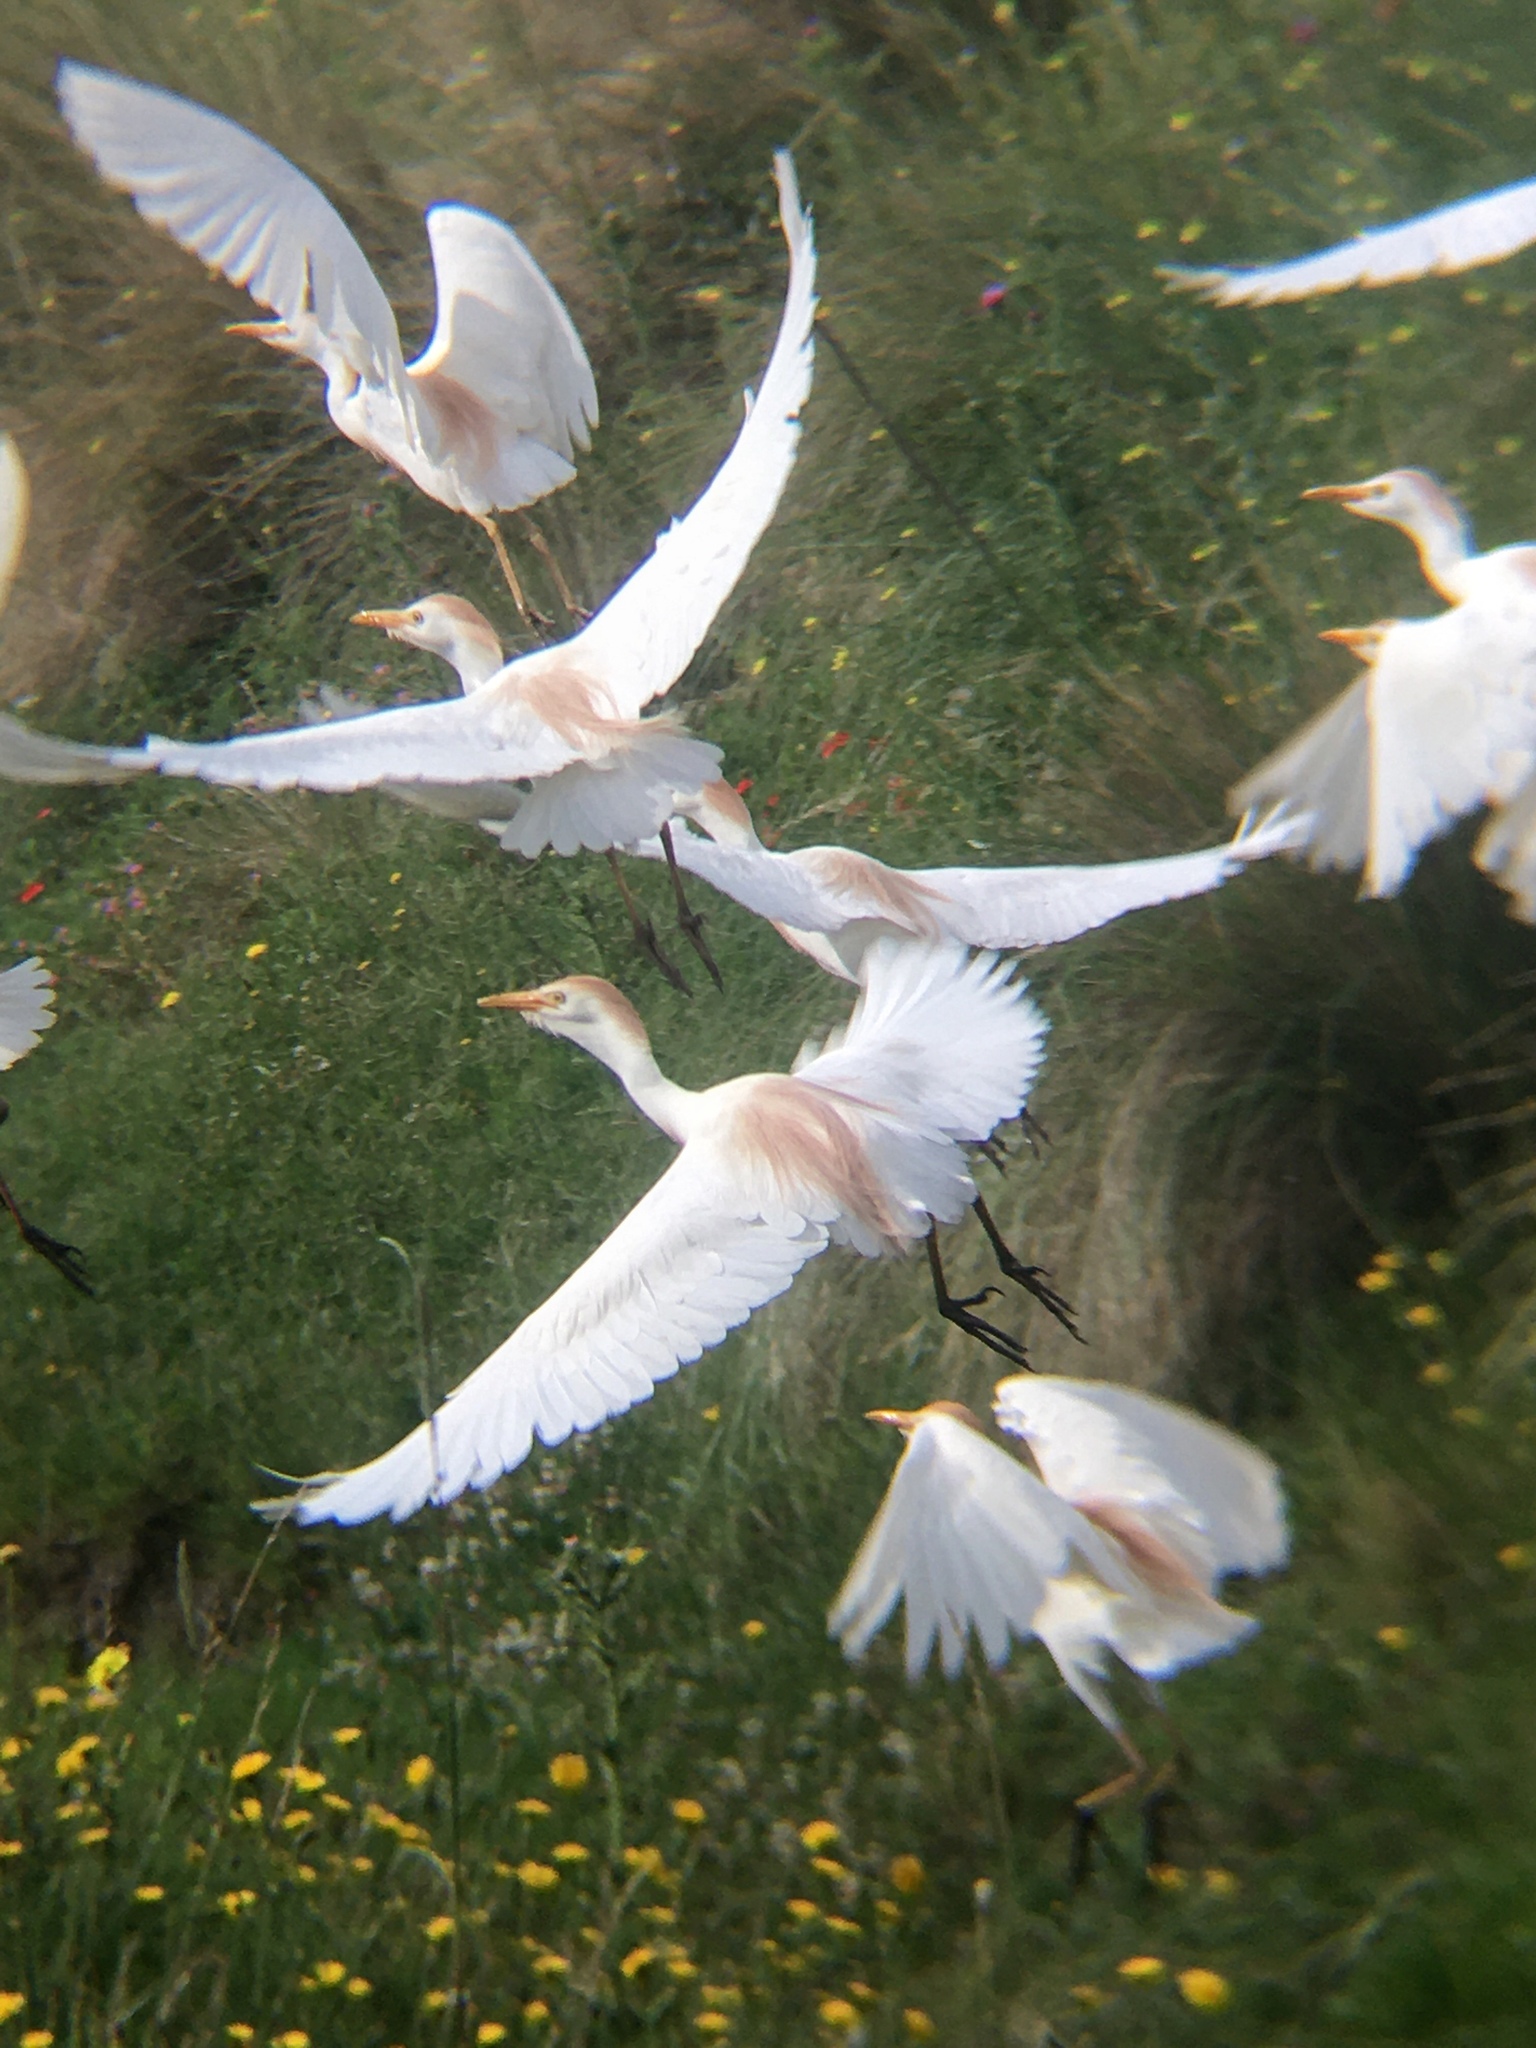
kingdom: Animalia
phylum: Chordata
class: Aves
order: Pelecaniformes
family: Ardeidae
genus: Bubulcus
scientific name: Bubulcus ibis
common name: Cattle egret
